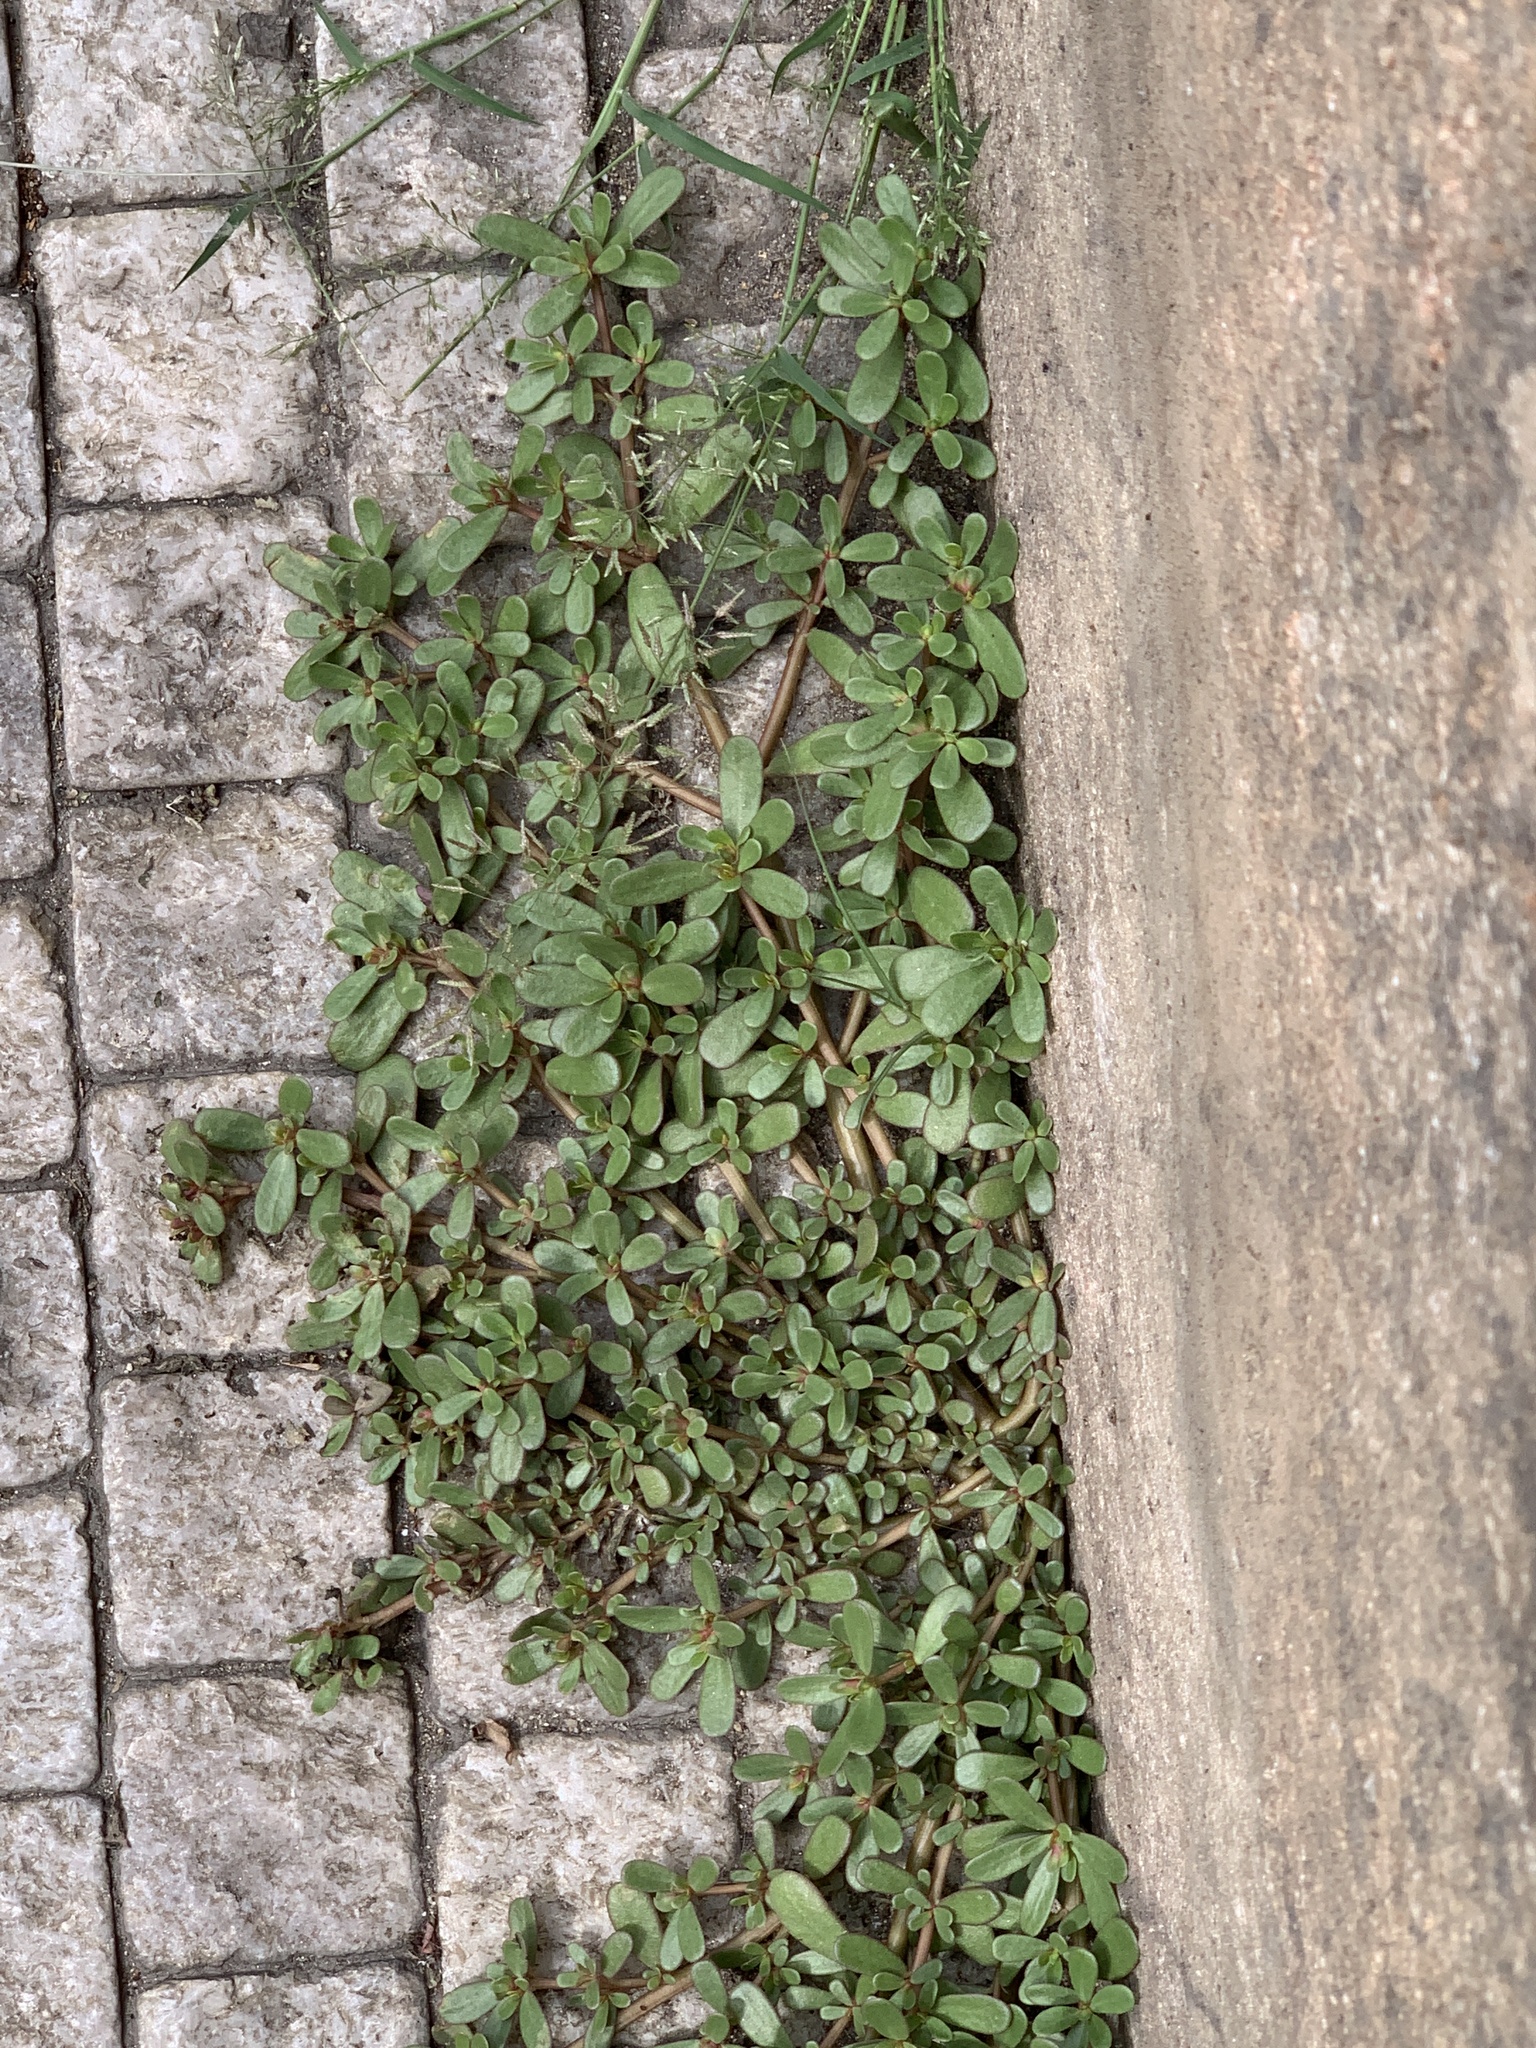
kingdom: Plantae
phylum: Tracheophyta
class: Magnoliopsida
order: Caryophyllales
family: Portulacaceae
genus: Portulaca
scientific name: Portulaca oleracea
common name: Common purslane
